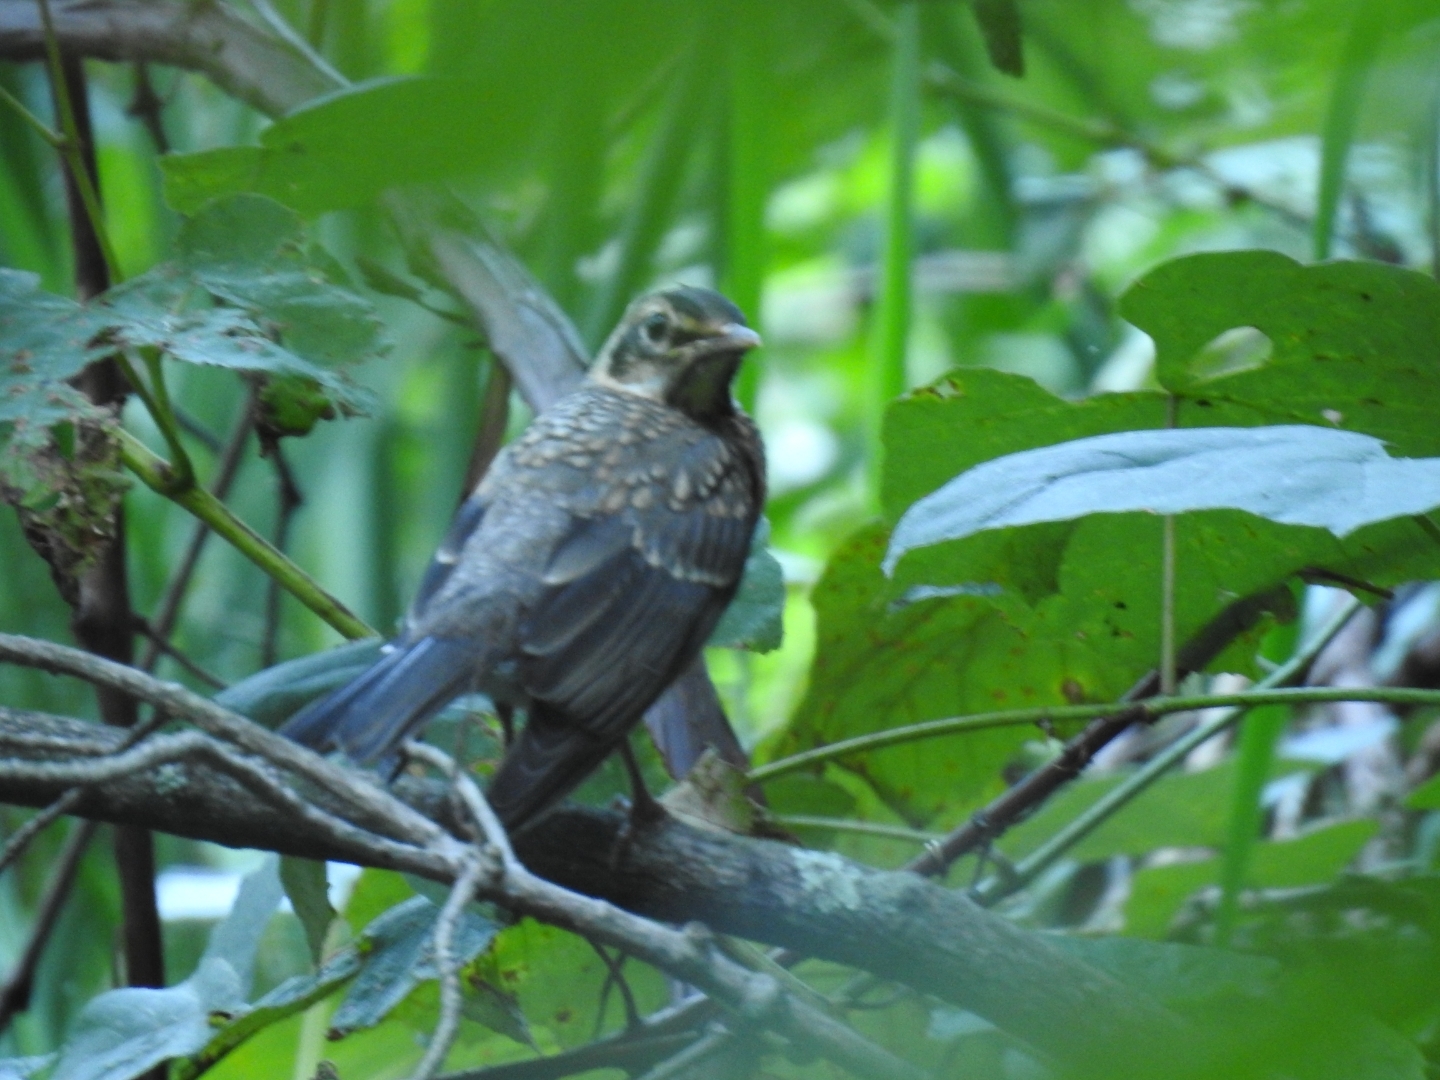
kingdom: Animalia
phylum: Chordata
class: Aves
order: Passeriformes
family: Turdidae
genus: Turdus
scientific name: Turdus migratorius
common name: American robin
